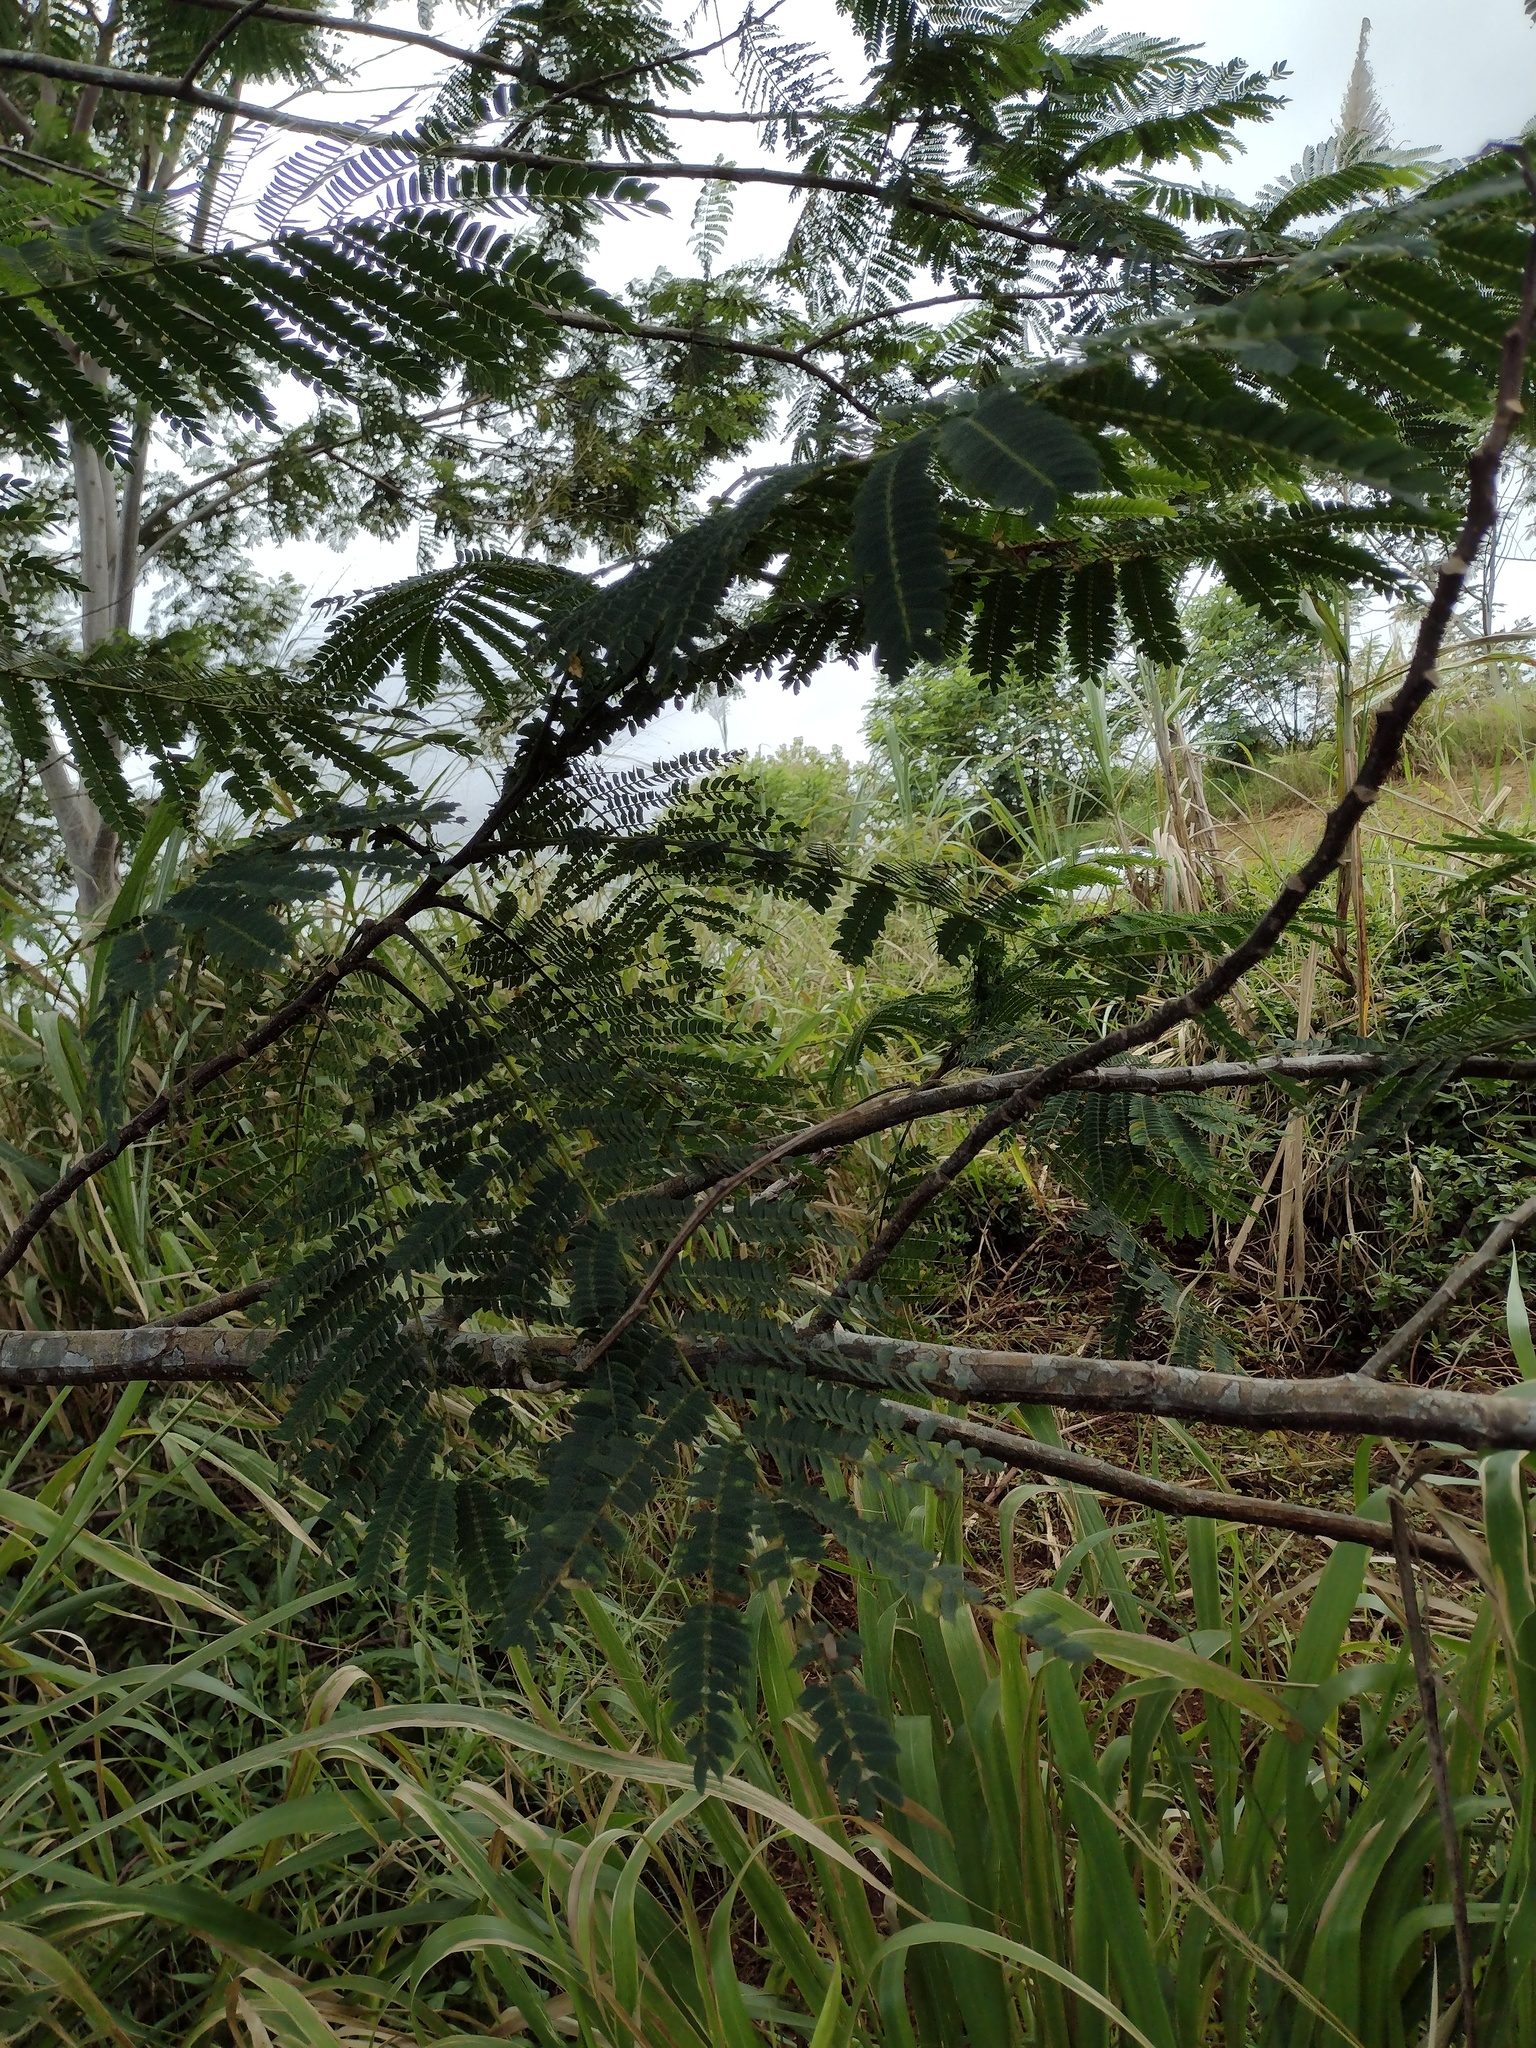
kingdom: Plantae
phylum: Tracheophyta
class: Magnoliopsida
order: Fabales
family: Fabaceae
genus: Falcataria
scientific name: Falcataria falcata
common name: Moluccan albizia
